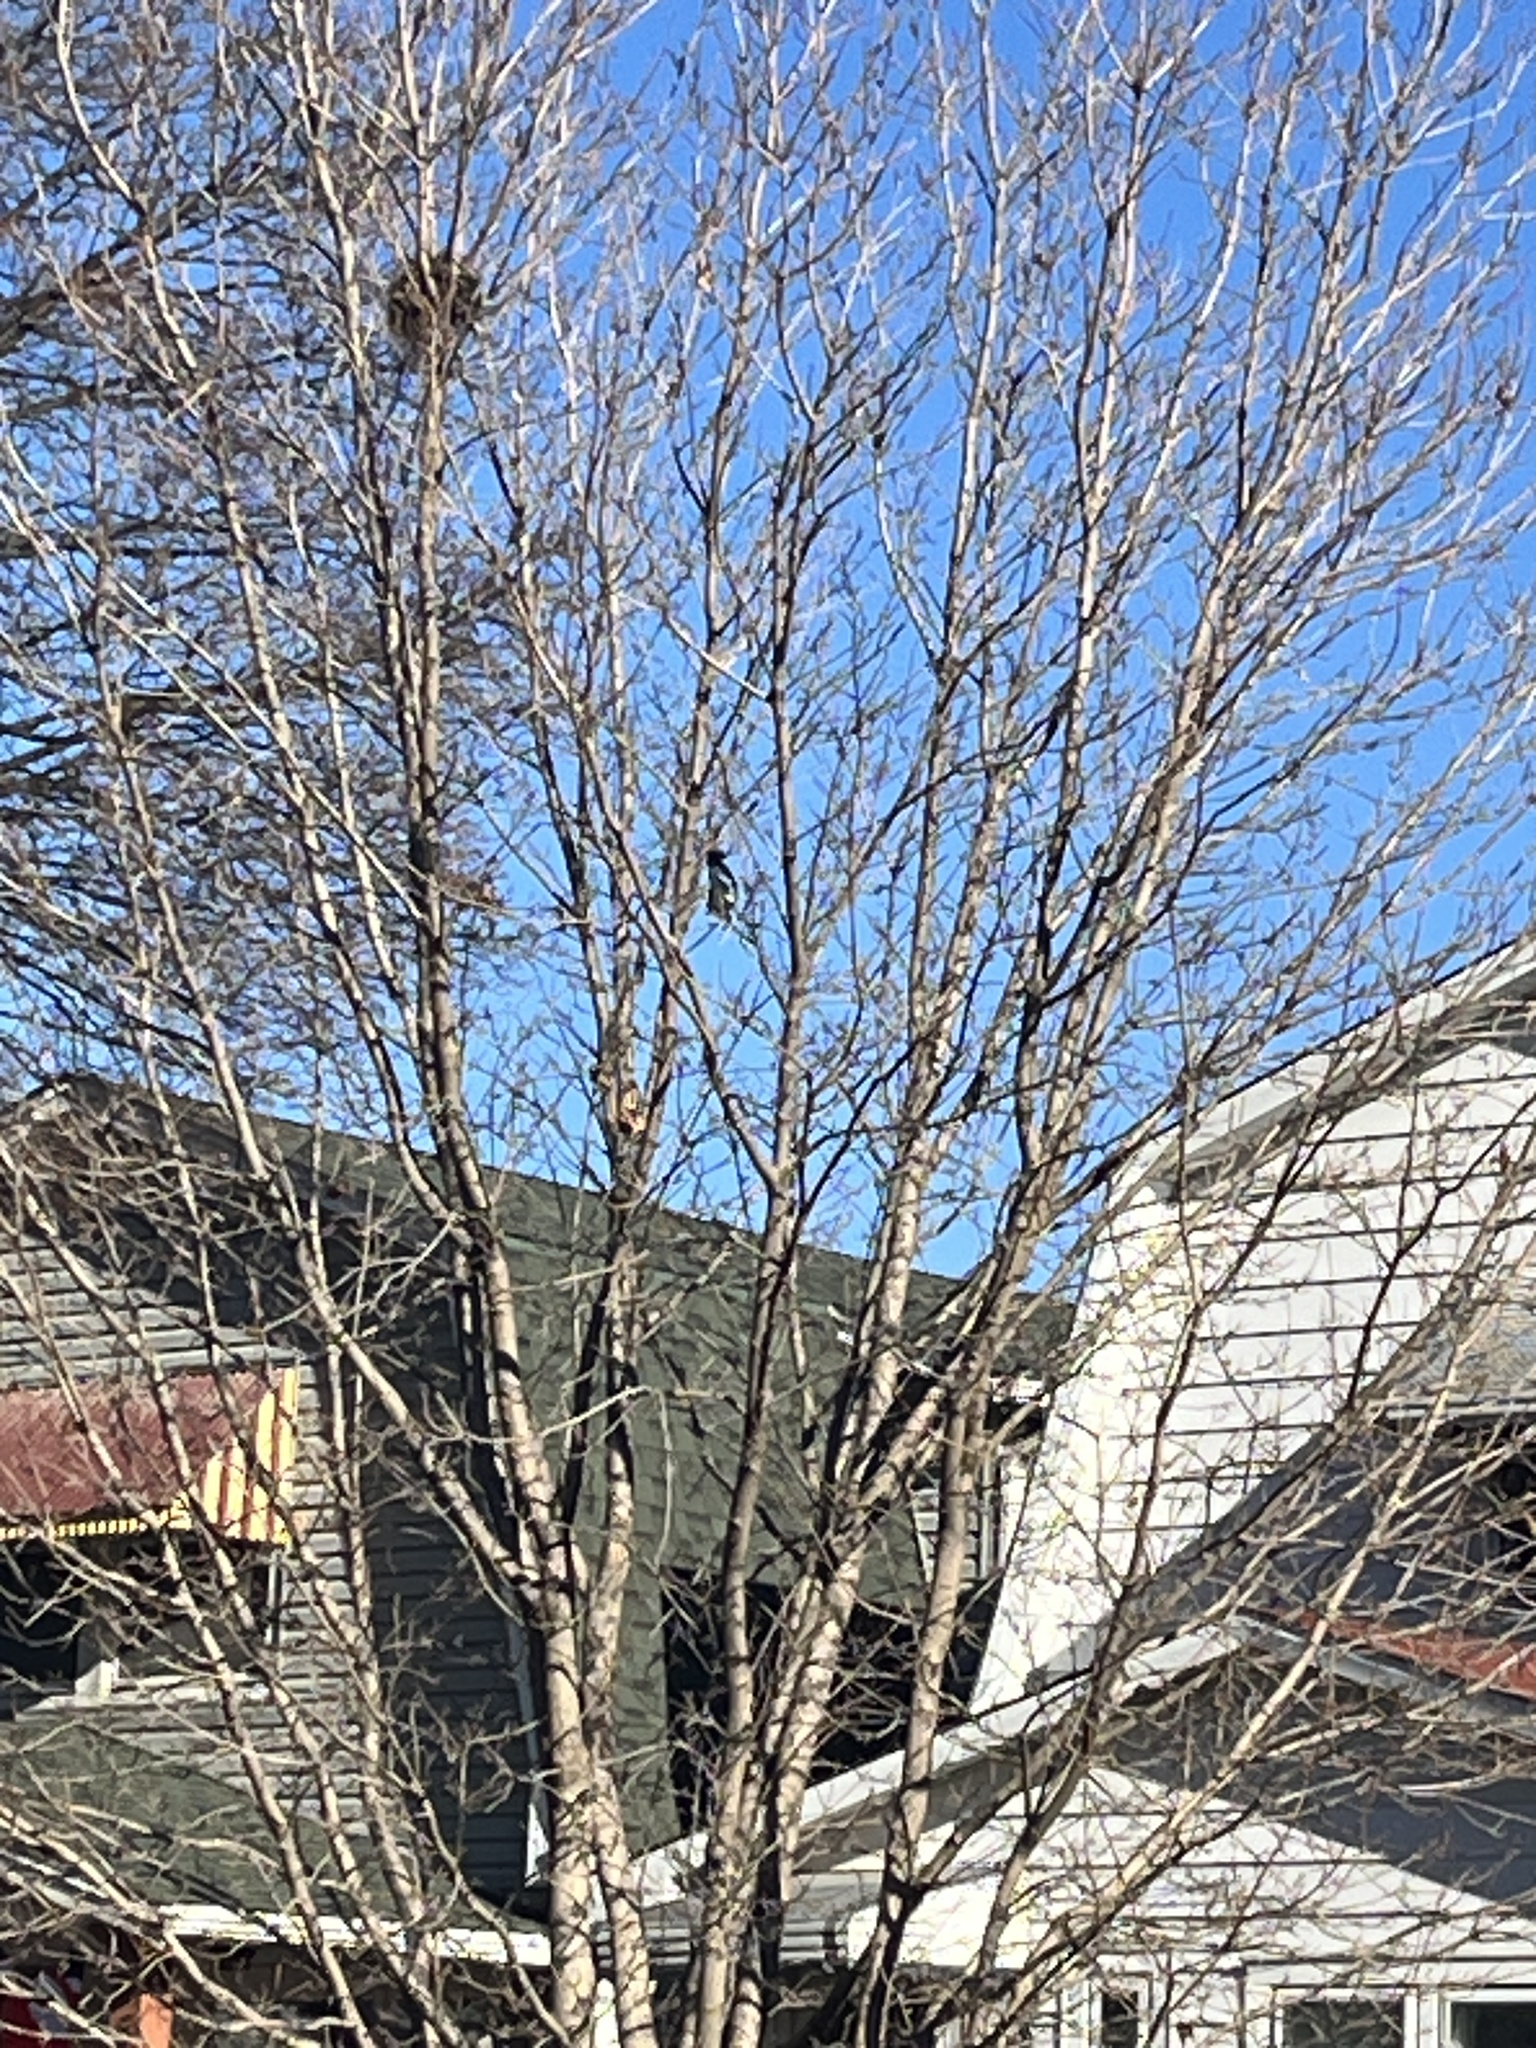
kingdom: Animalia
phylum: Chordata
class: Aves
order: Passeriformes
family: Corvidae
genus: Cyanocitta
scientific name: Cyanocitta cristata
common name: Blue jay
